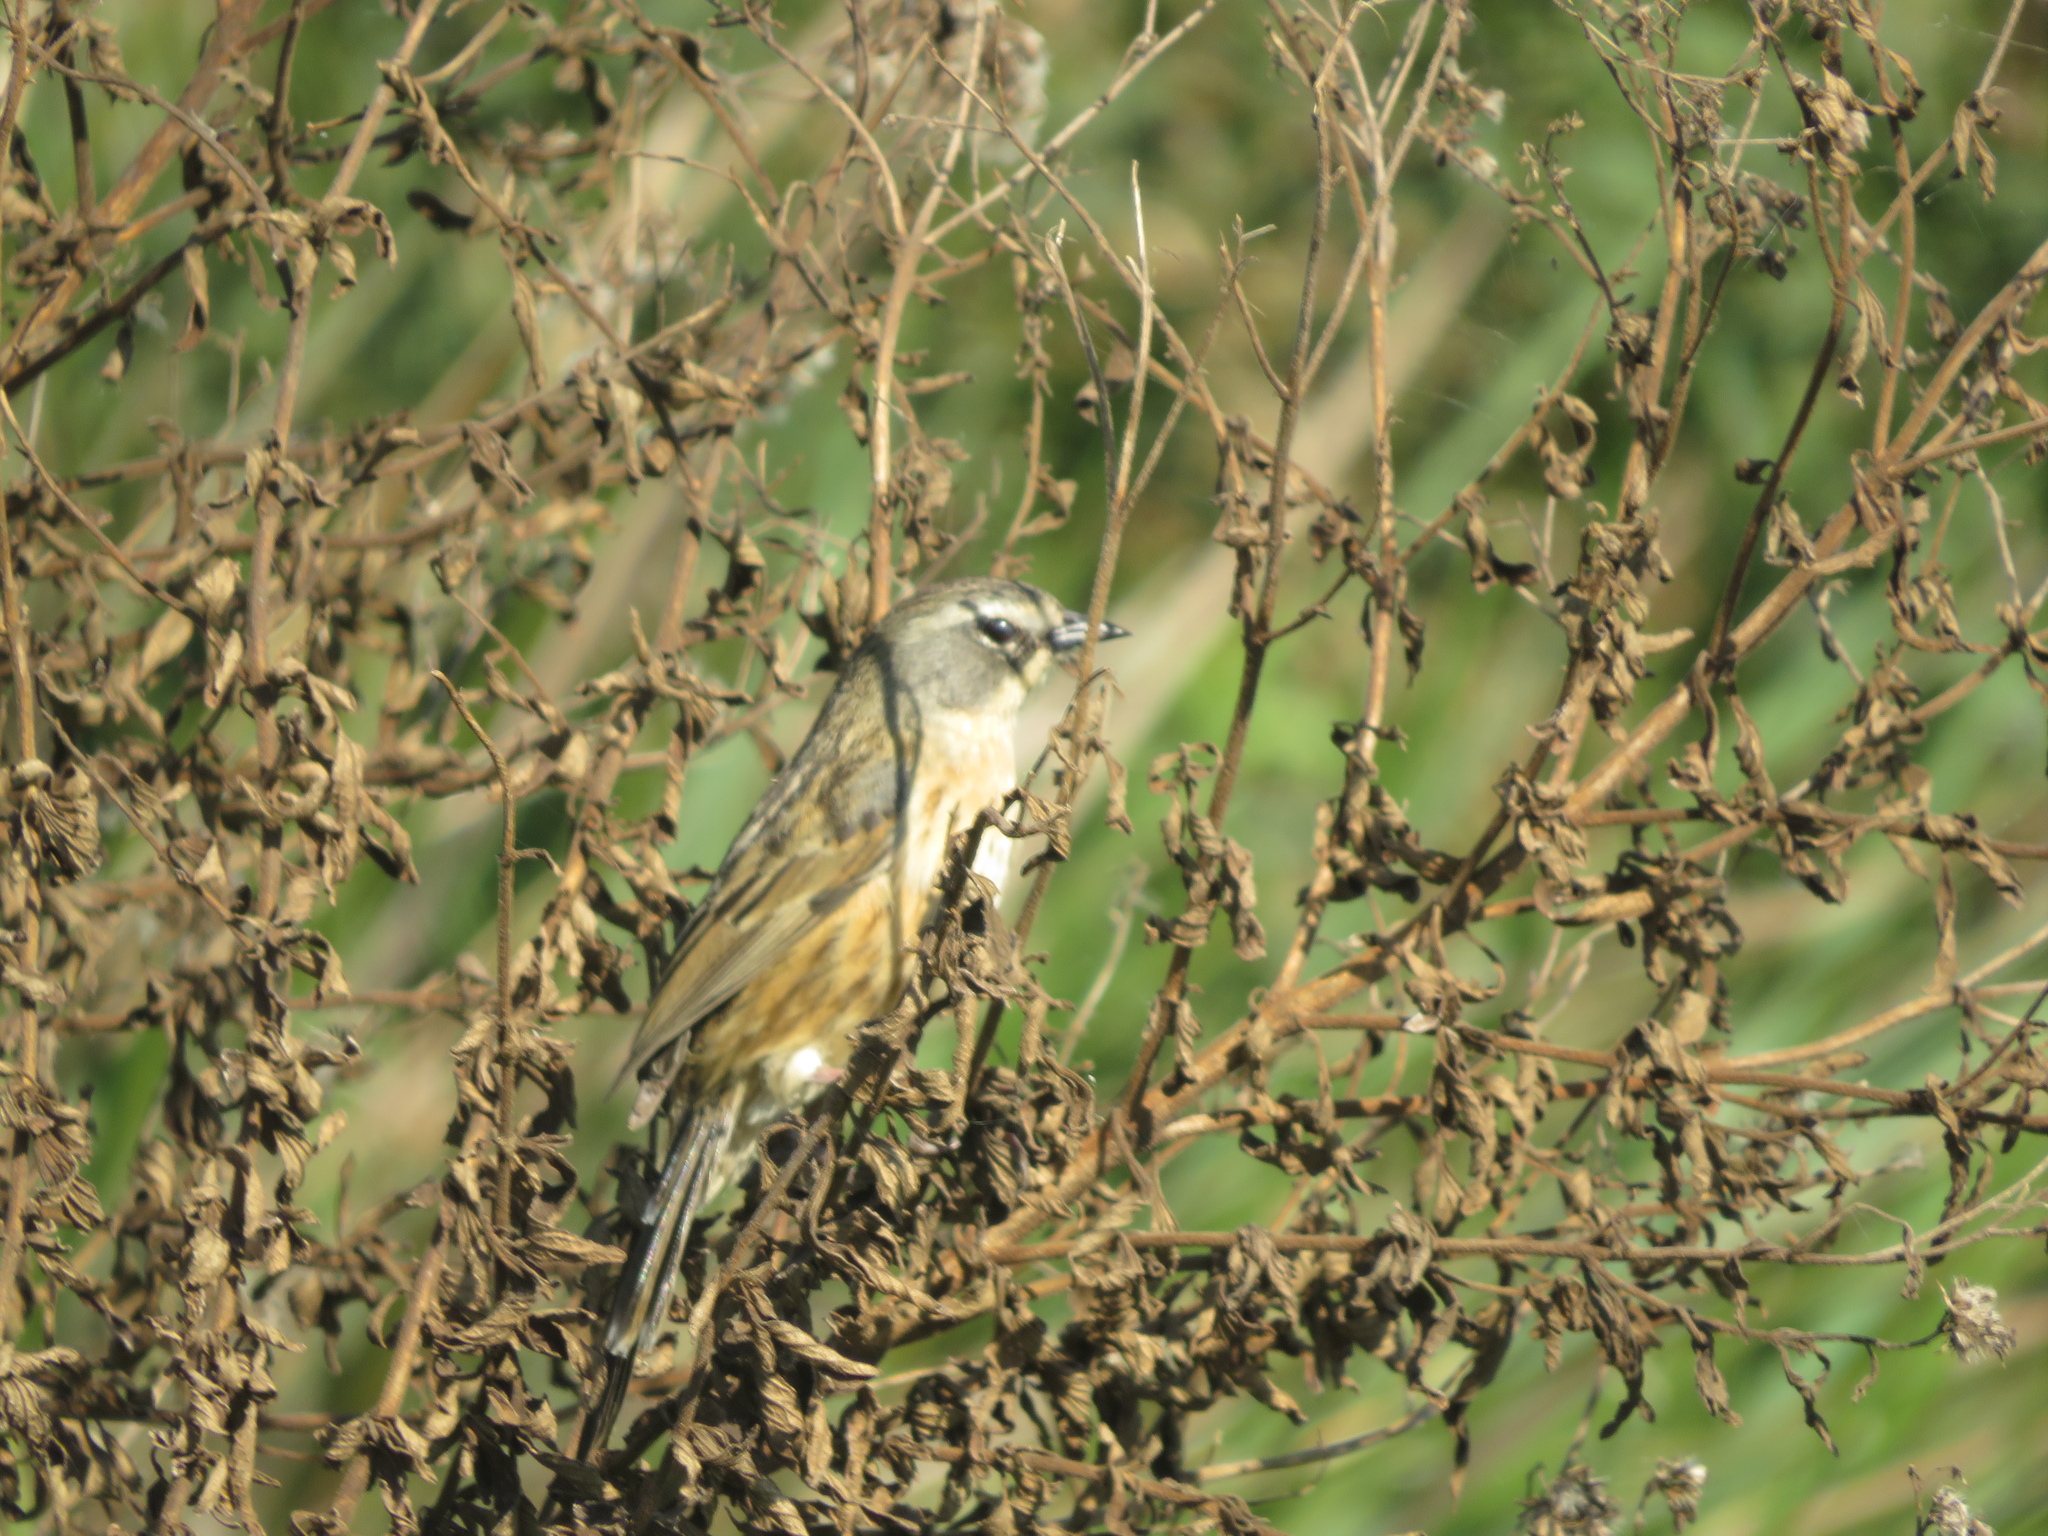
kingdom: Animalia
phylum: Chordata
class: Aves
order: Passeriformes
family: Thraupidae
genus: Donacospiza
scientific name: Donacospiza albifrons
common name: Long-tailed reed finch
